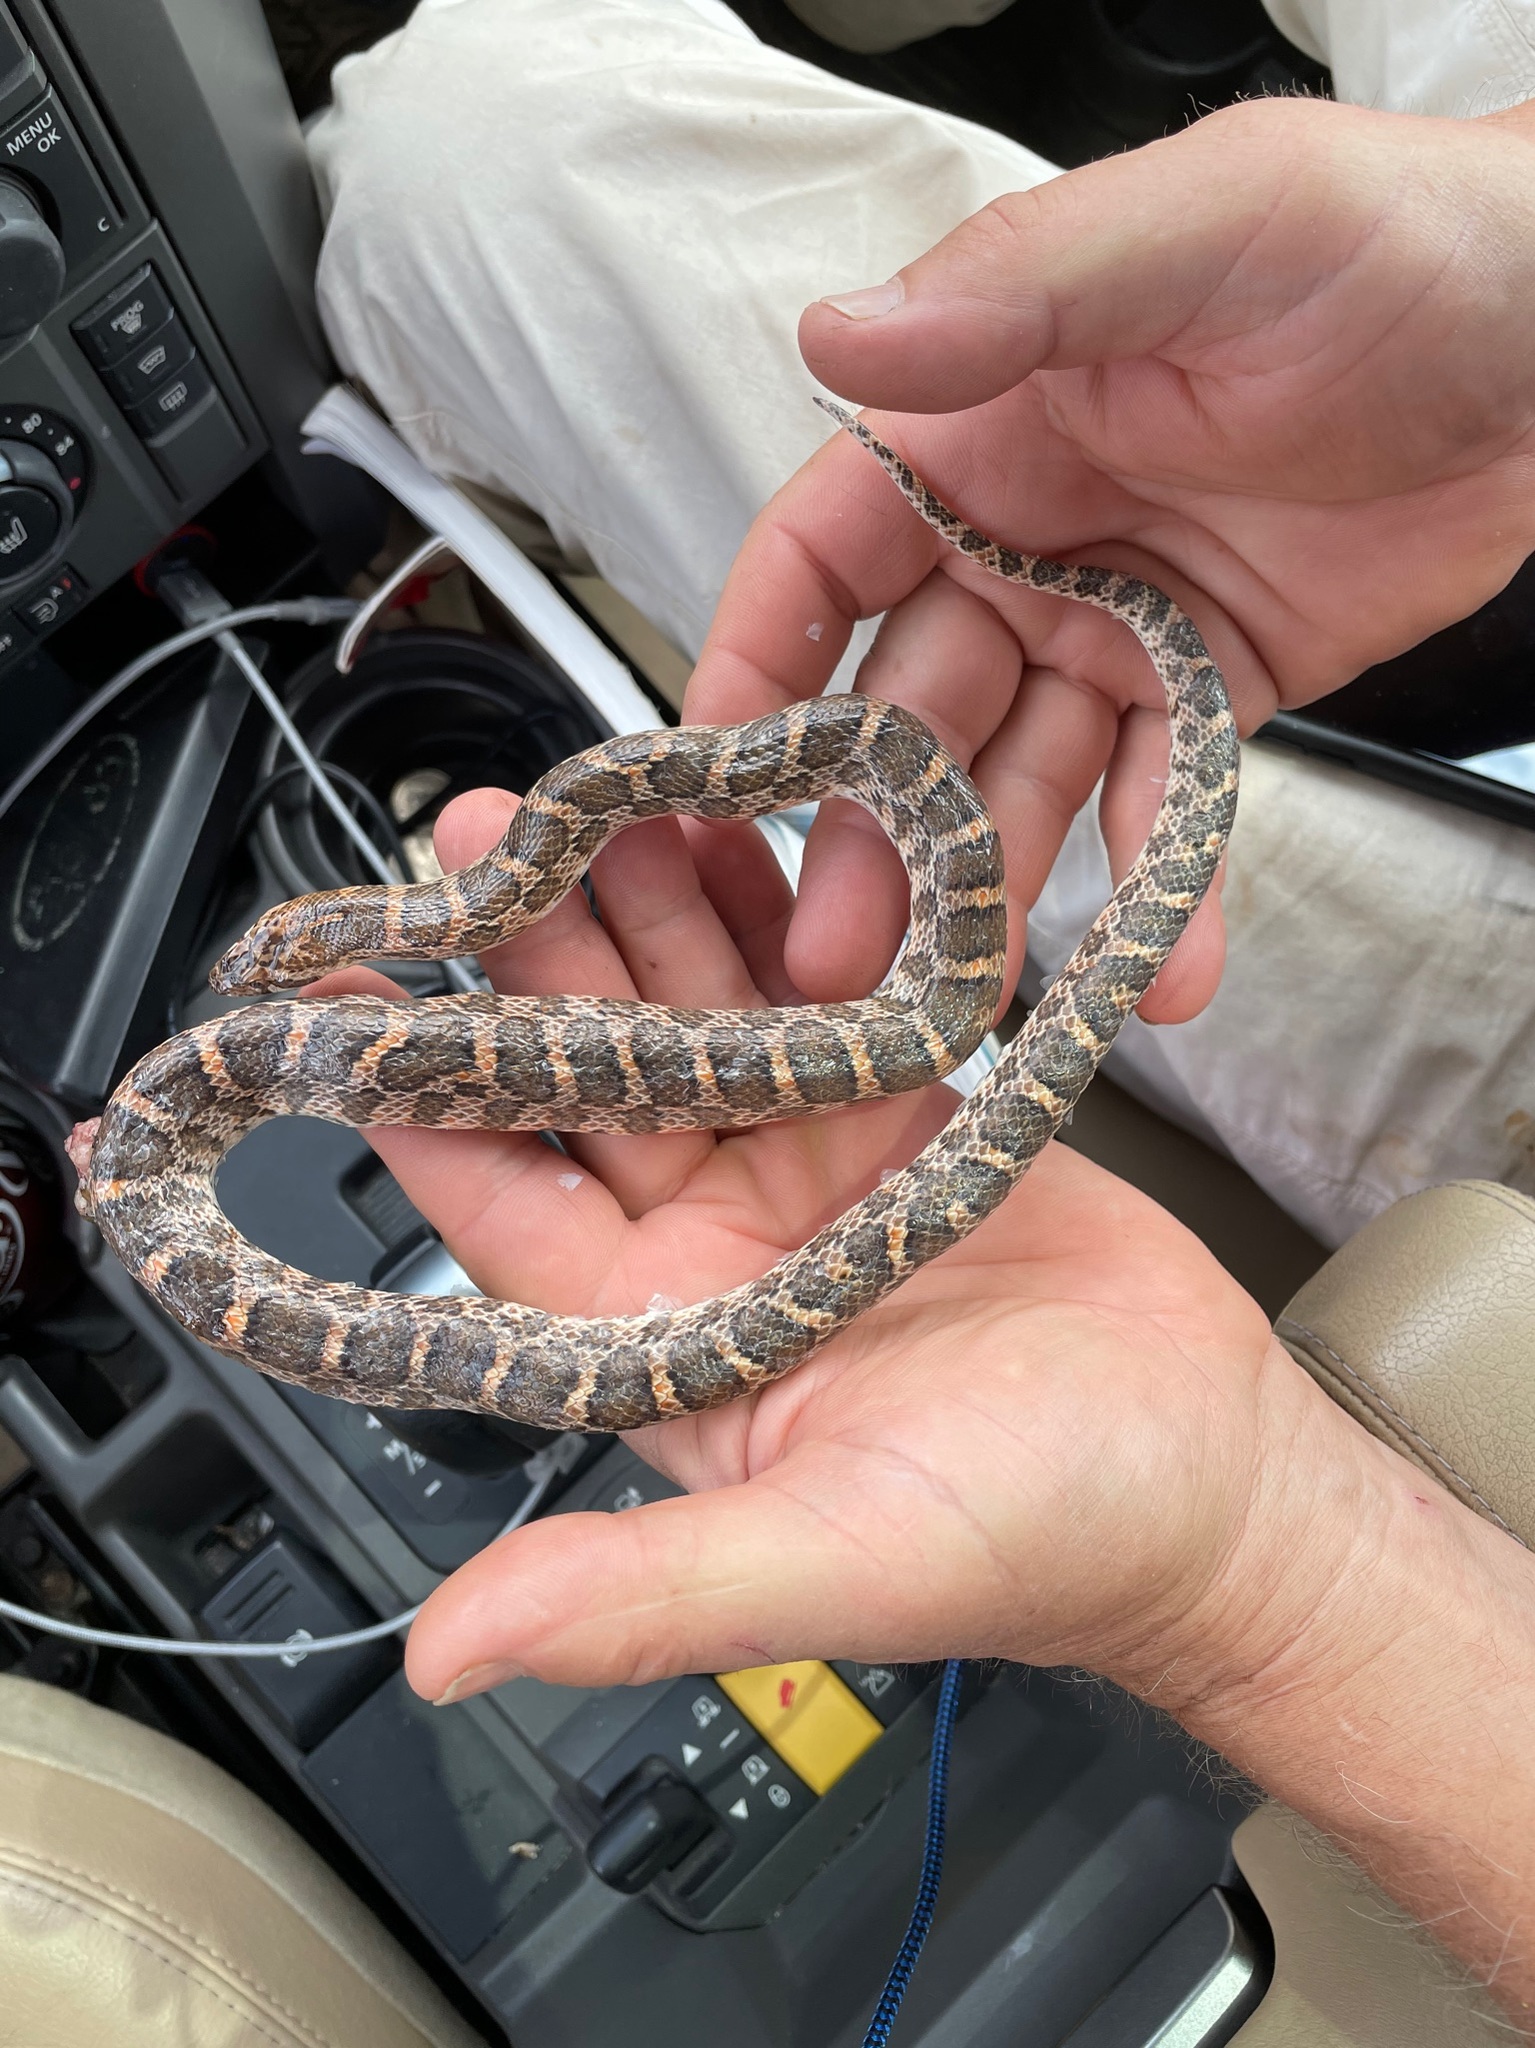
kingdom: Animalia
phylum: Chordata
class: Squamata
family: Colubridae
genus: Arizona
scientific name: Arizona elegans
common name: Glossy snake
